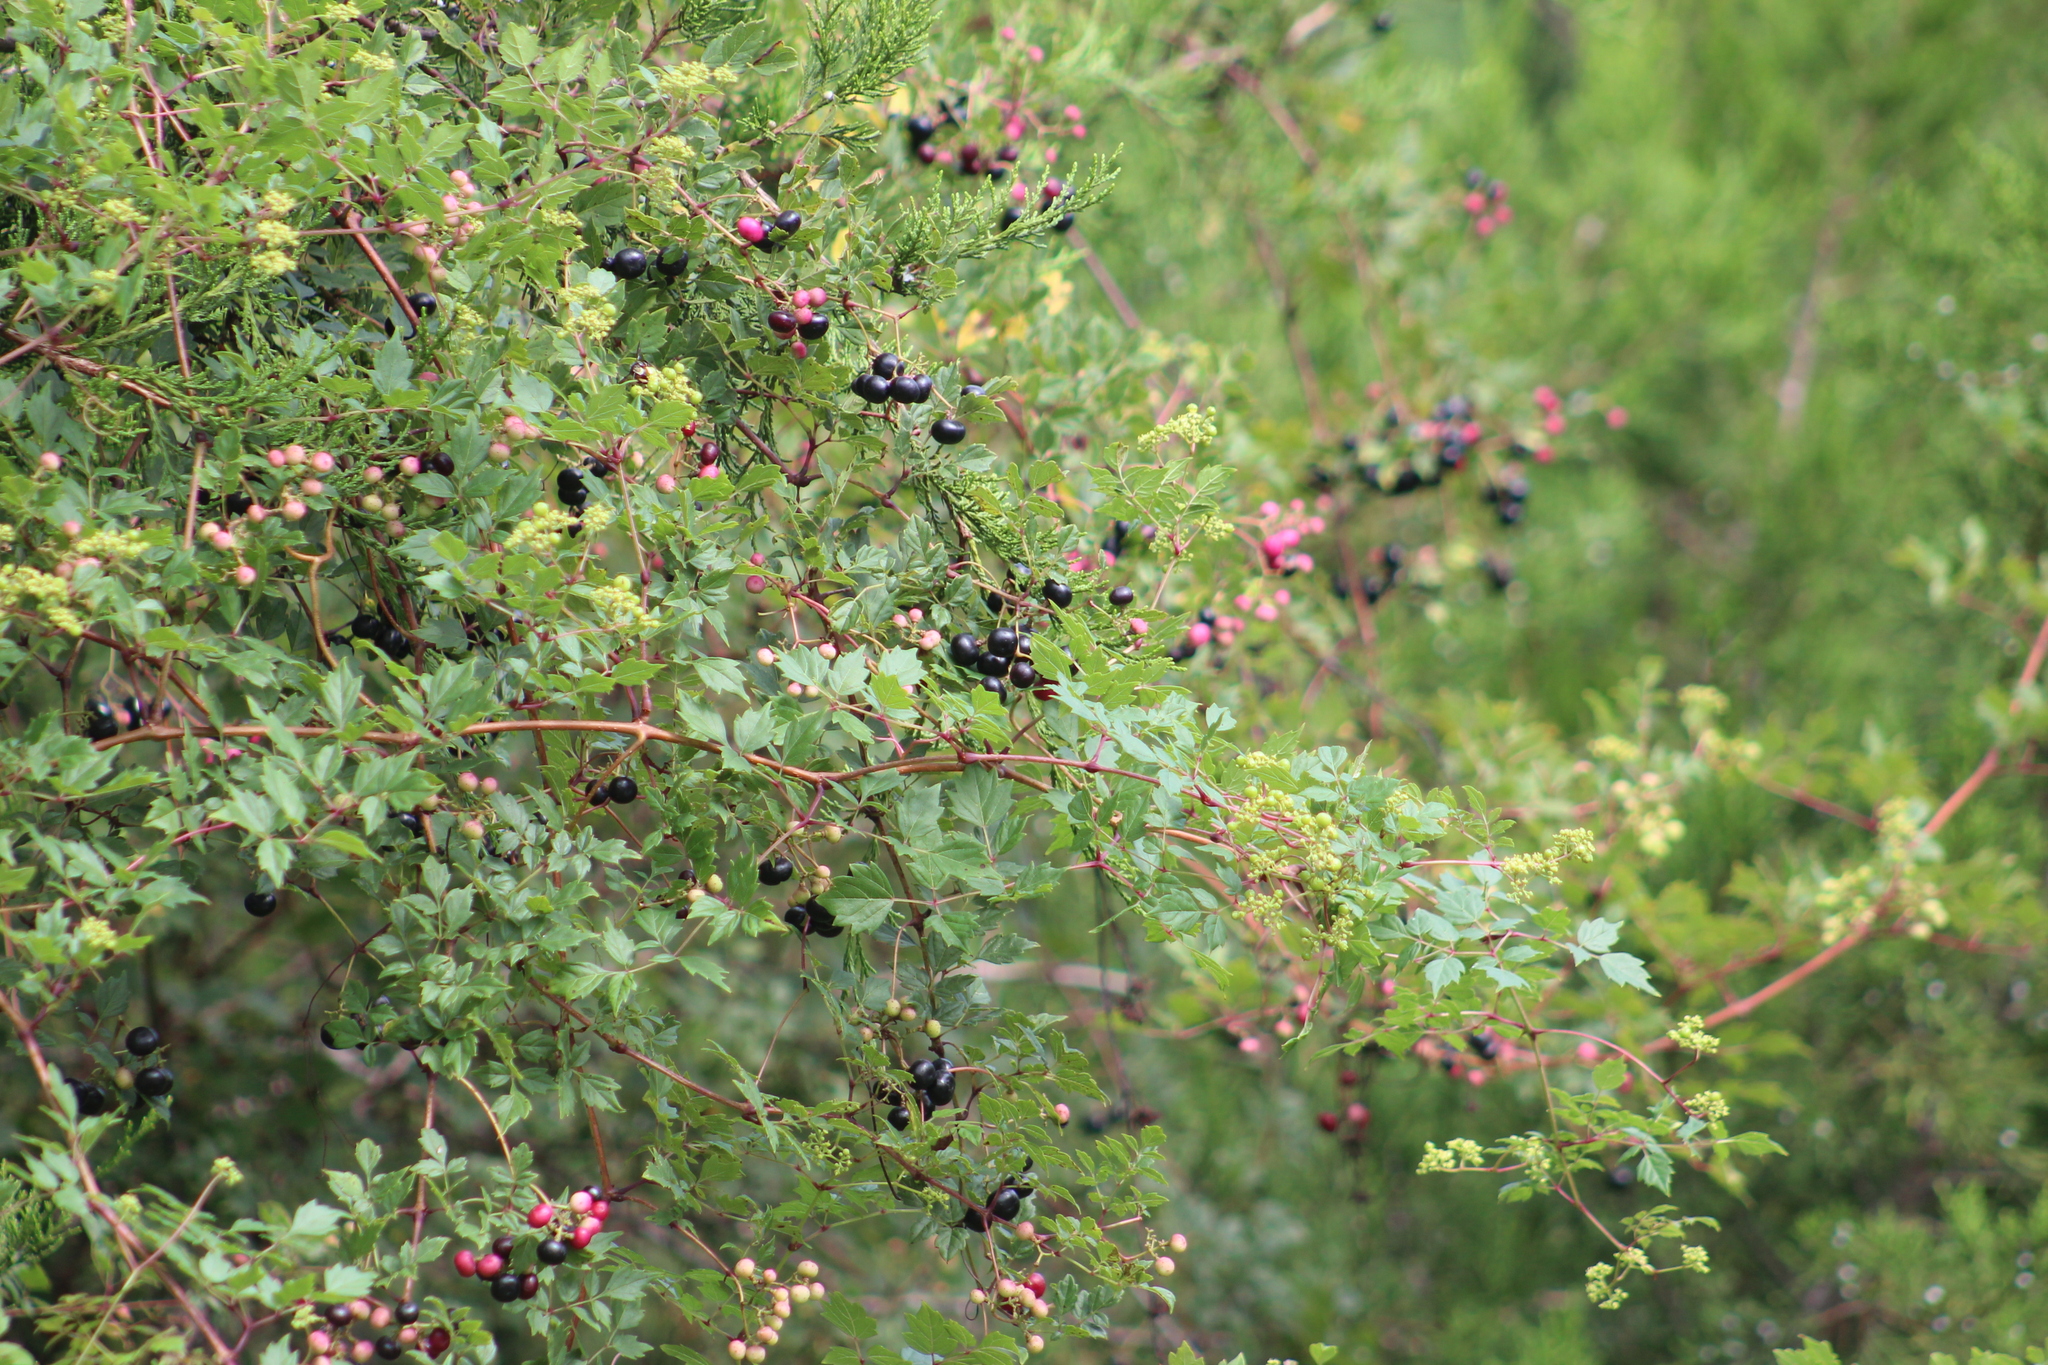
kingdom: Plantae
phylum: Tracheophyta
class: Magnoliopsida
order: Vitales
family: Vitaceae
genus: Nekemias
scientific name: Nekemias arborea
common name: Peppervine
